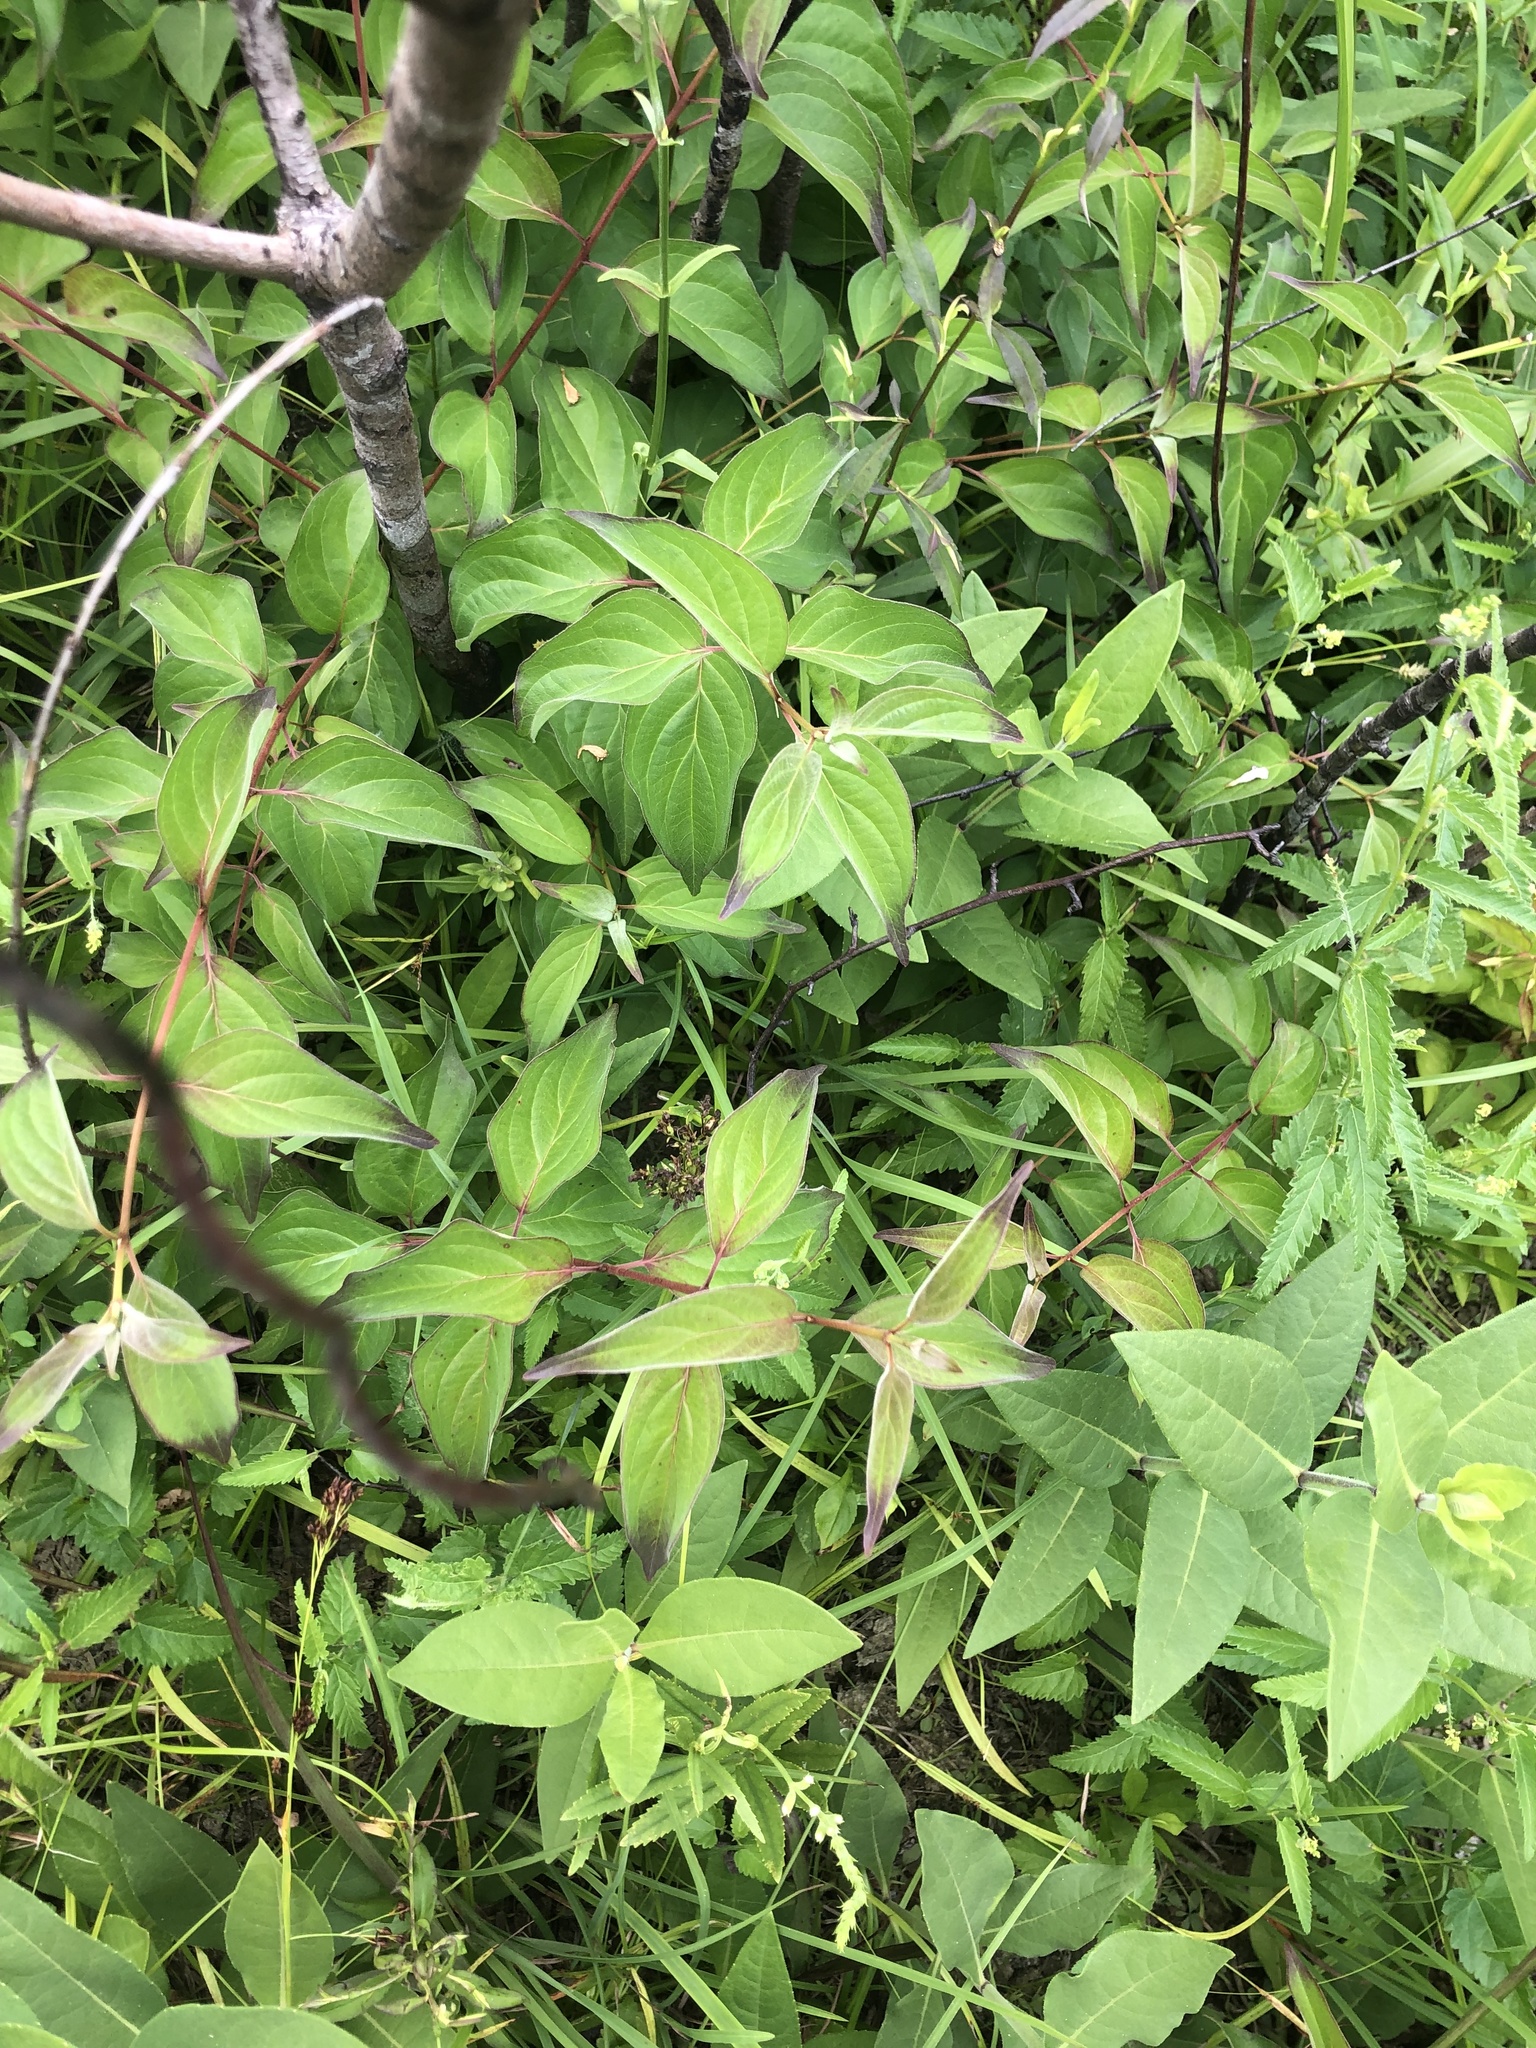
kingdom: Plantae
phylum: Tracheophyta
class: Magnoliopsida
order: Cornales
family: Cornaceae
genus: Cornus
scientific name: Cornus drummondii
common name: Rough-leaf dogwood
